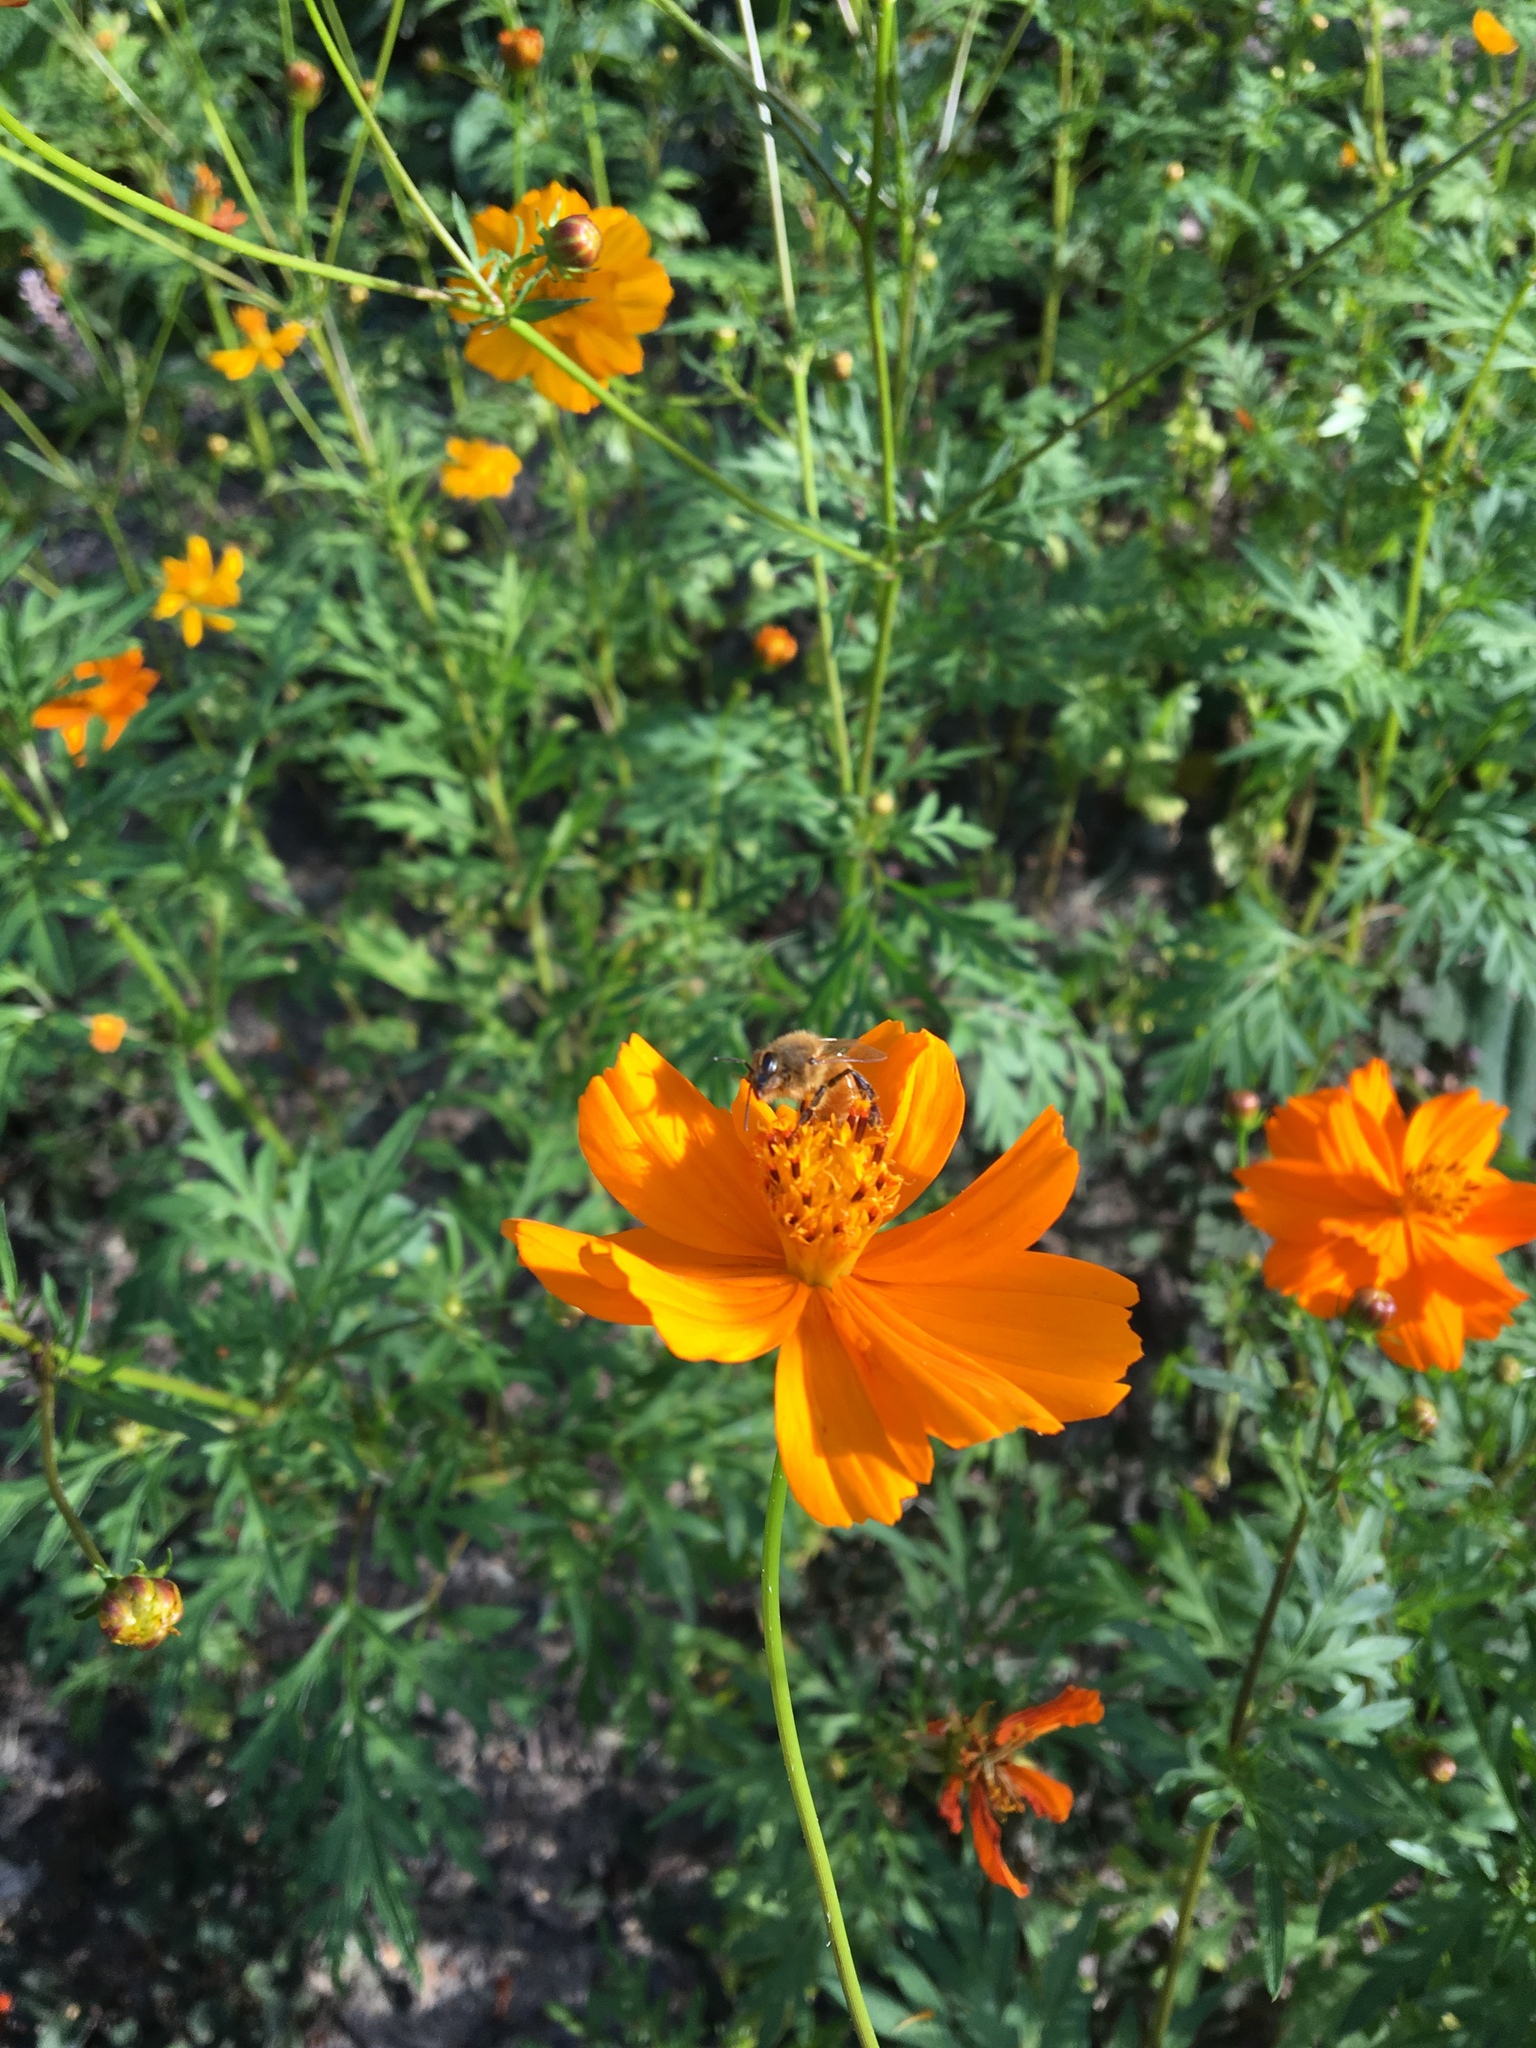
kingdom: Animalia
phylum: Arthropoda
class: Insecta
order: Hymenoptera
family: Apidae
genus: Apis
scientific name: Apis mellifera
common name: Honey bee
